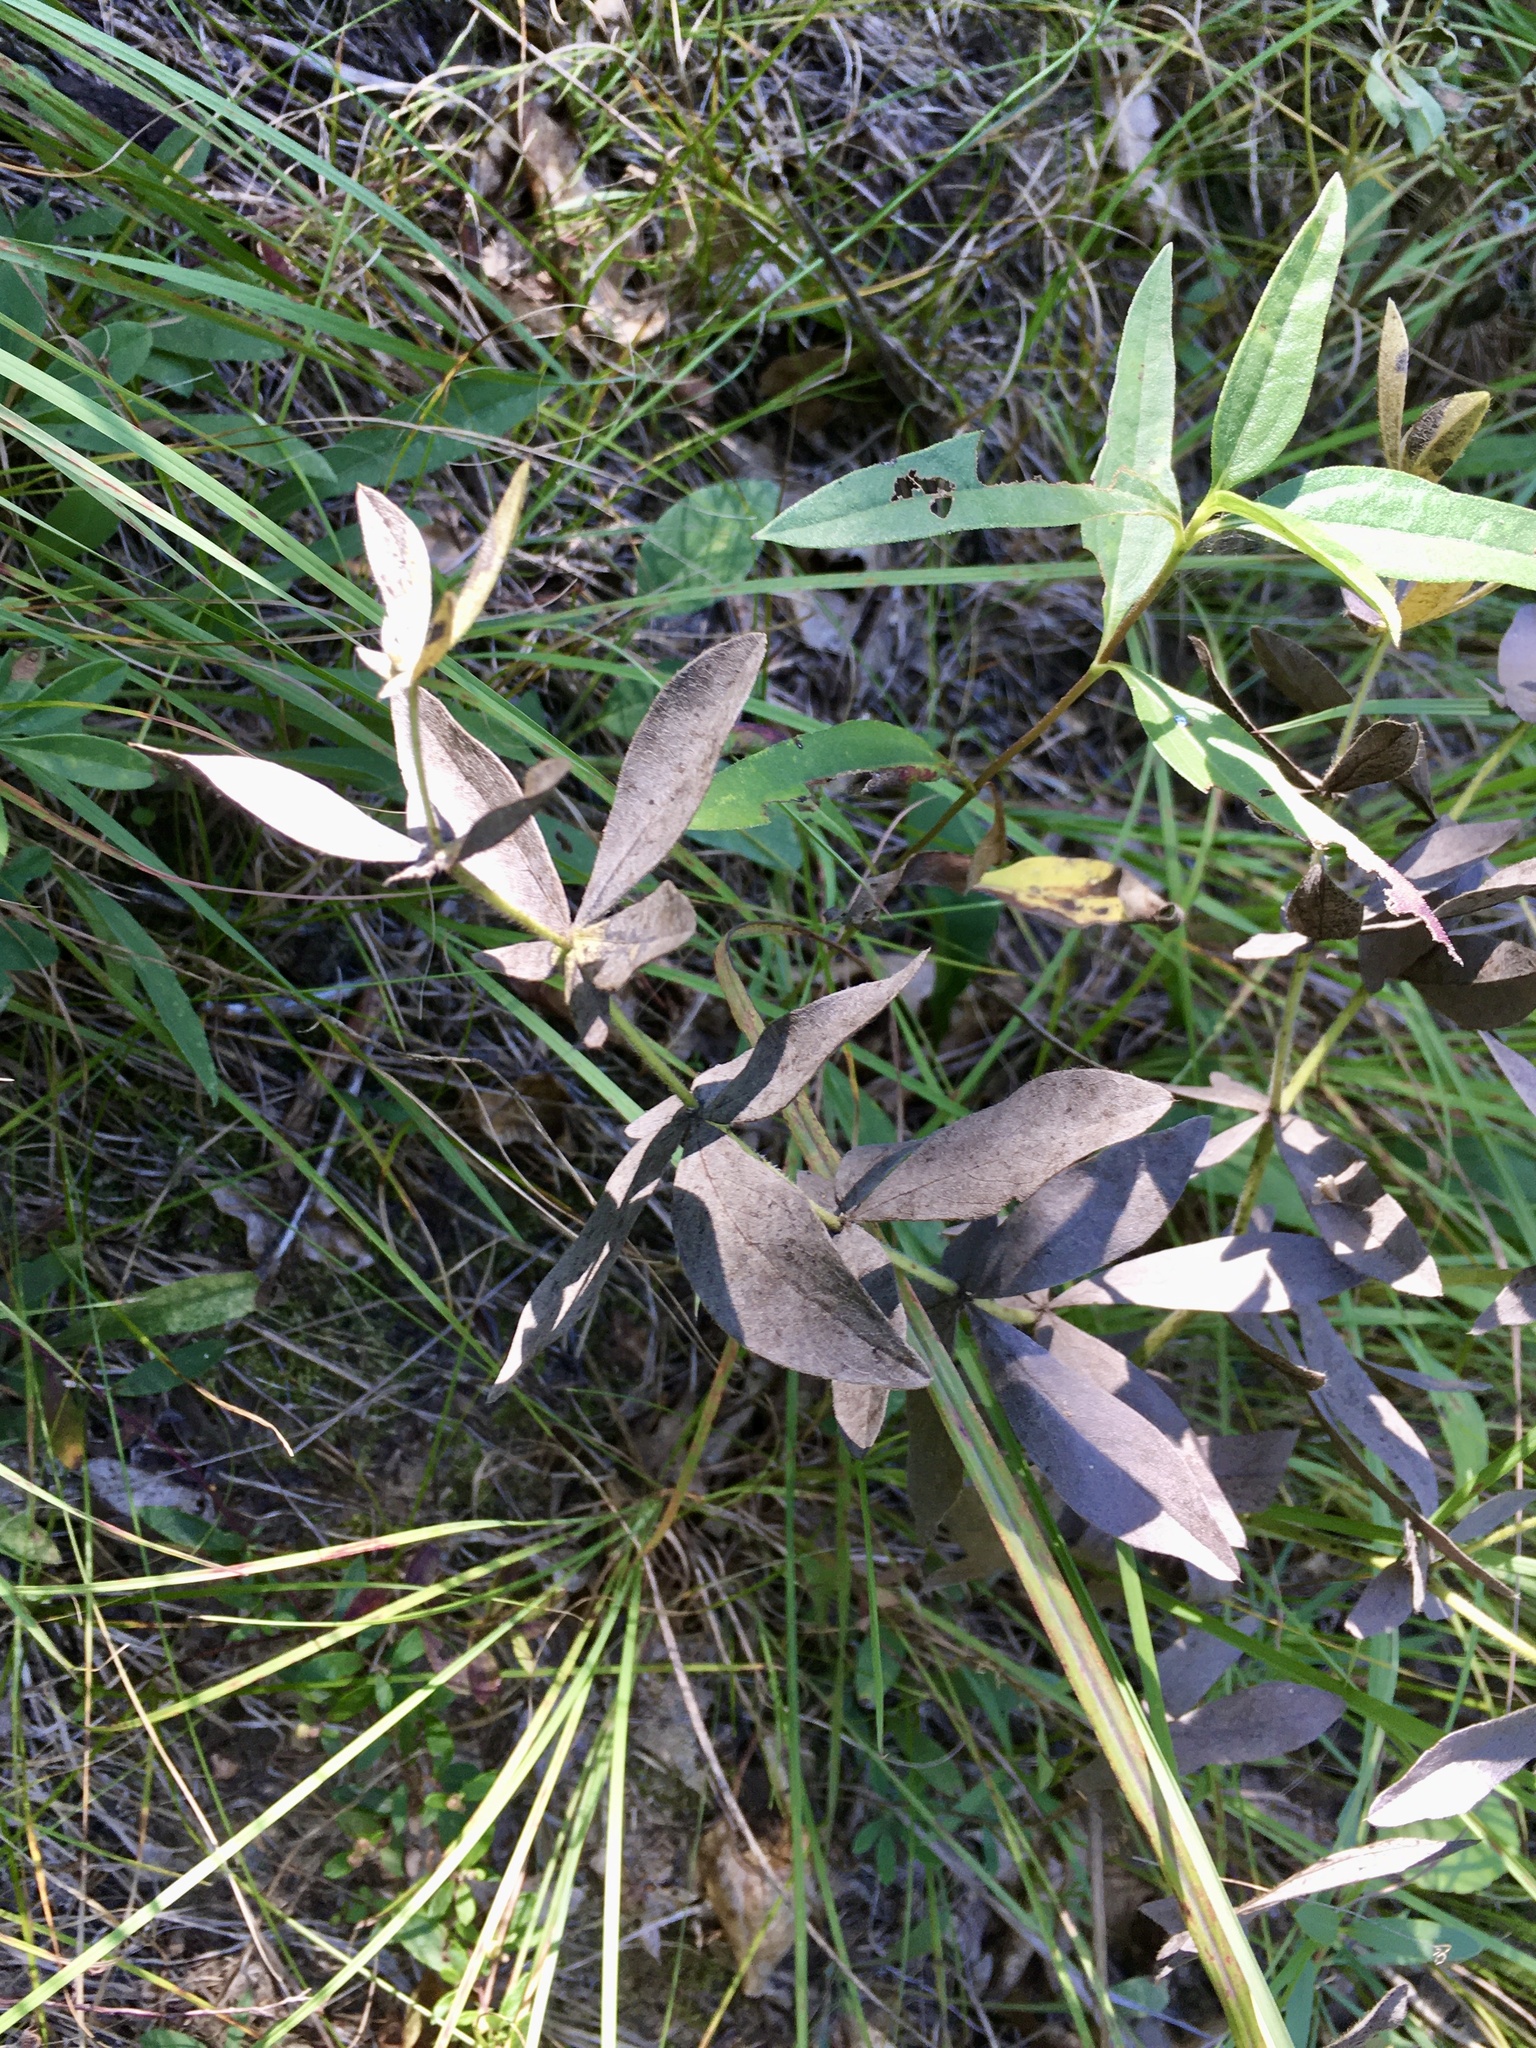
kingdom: Plantae
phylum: Tracheophyta
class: Magnoliopsida
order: Fabales
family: Fabaceae
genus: Baptisia
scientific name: Baptisia bracteata
